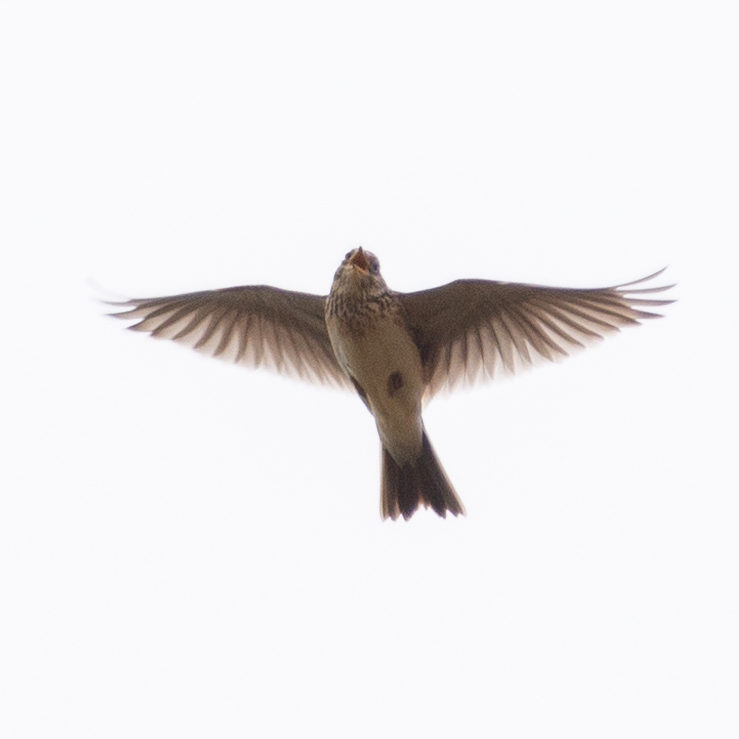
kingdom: Animalia
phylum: Chordata
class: Aves
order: Passeriformes
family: Alaudidae
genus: Alauda
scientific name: Alauda arvensis
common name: Eurasian skylark
